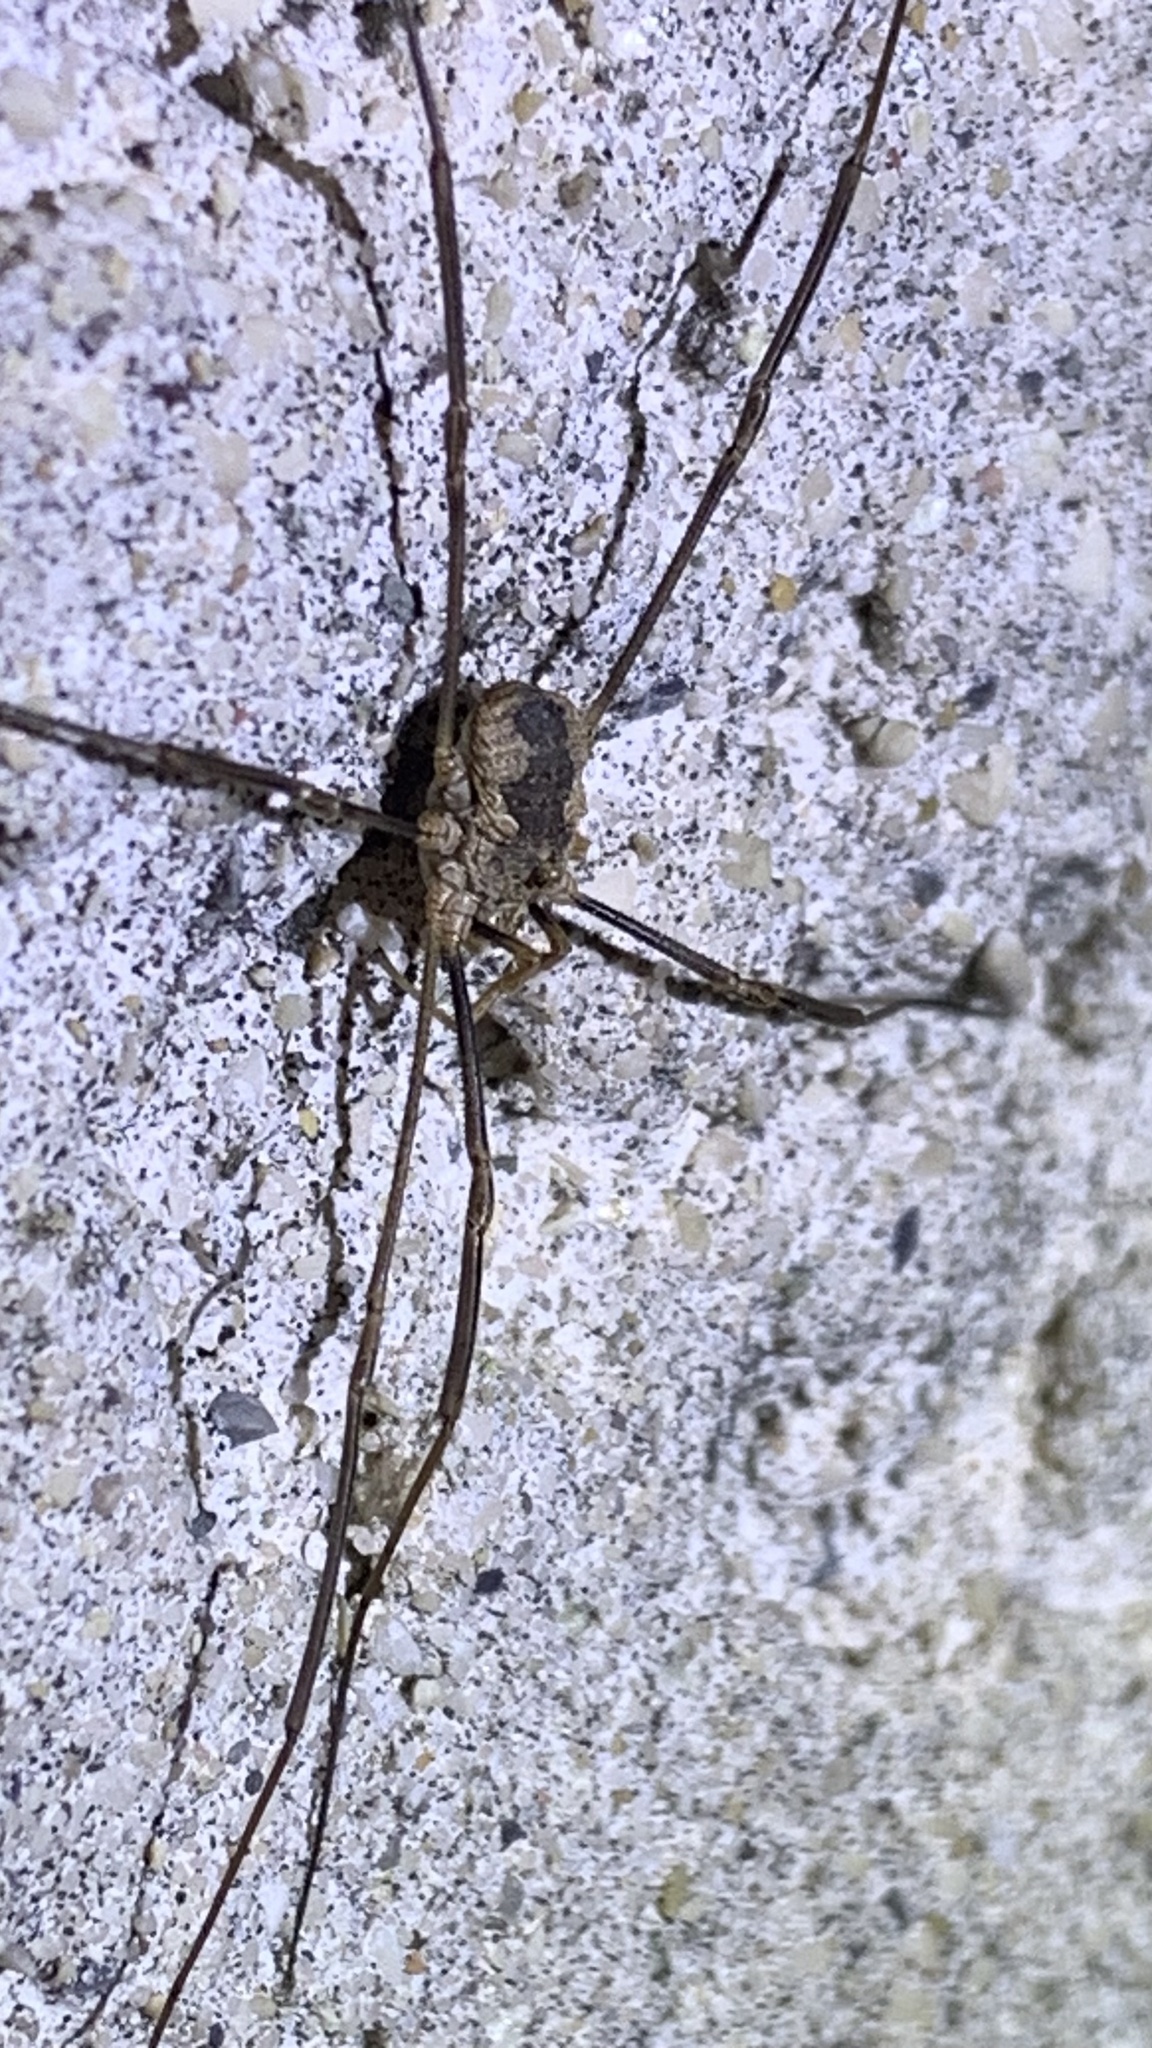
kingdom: Animalia
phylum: Arthropoda
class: Arachnida
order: Opiliones
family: Phalangiidae
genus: Phalangium
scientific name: Phalangium opilio
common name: Daddy longleg
